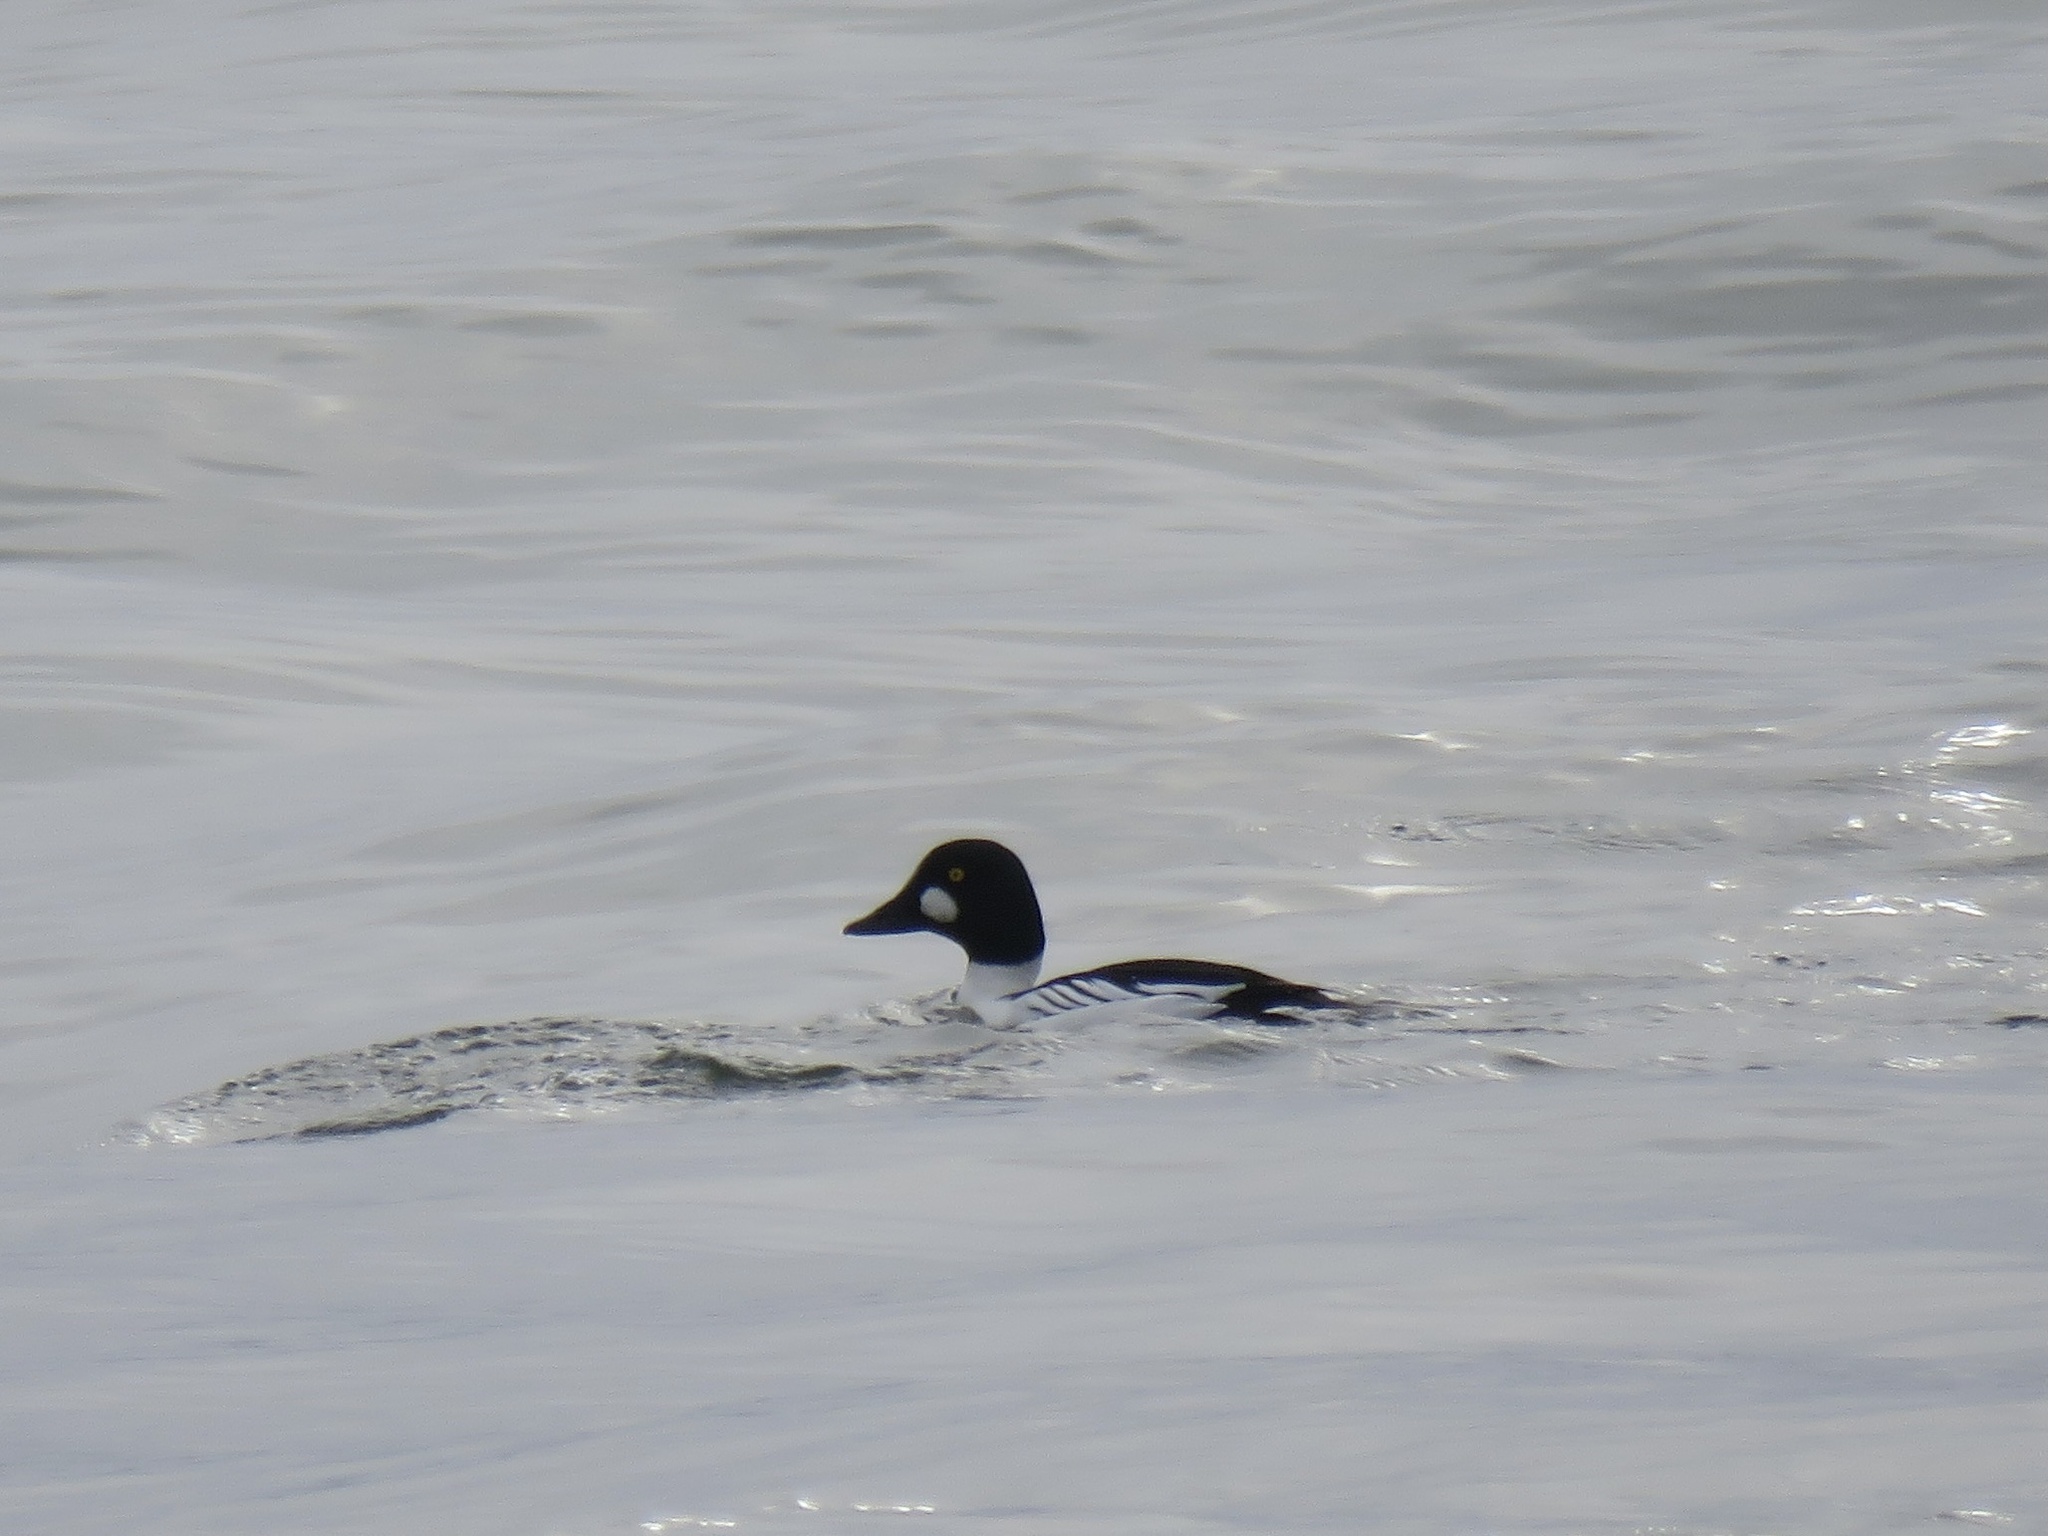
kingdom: Animalia
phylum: Chordata
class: Aves
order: Anseriformes
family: Anatidae
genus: Bucephala
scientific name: Bucephala clangula
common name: Common goldeneye
